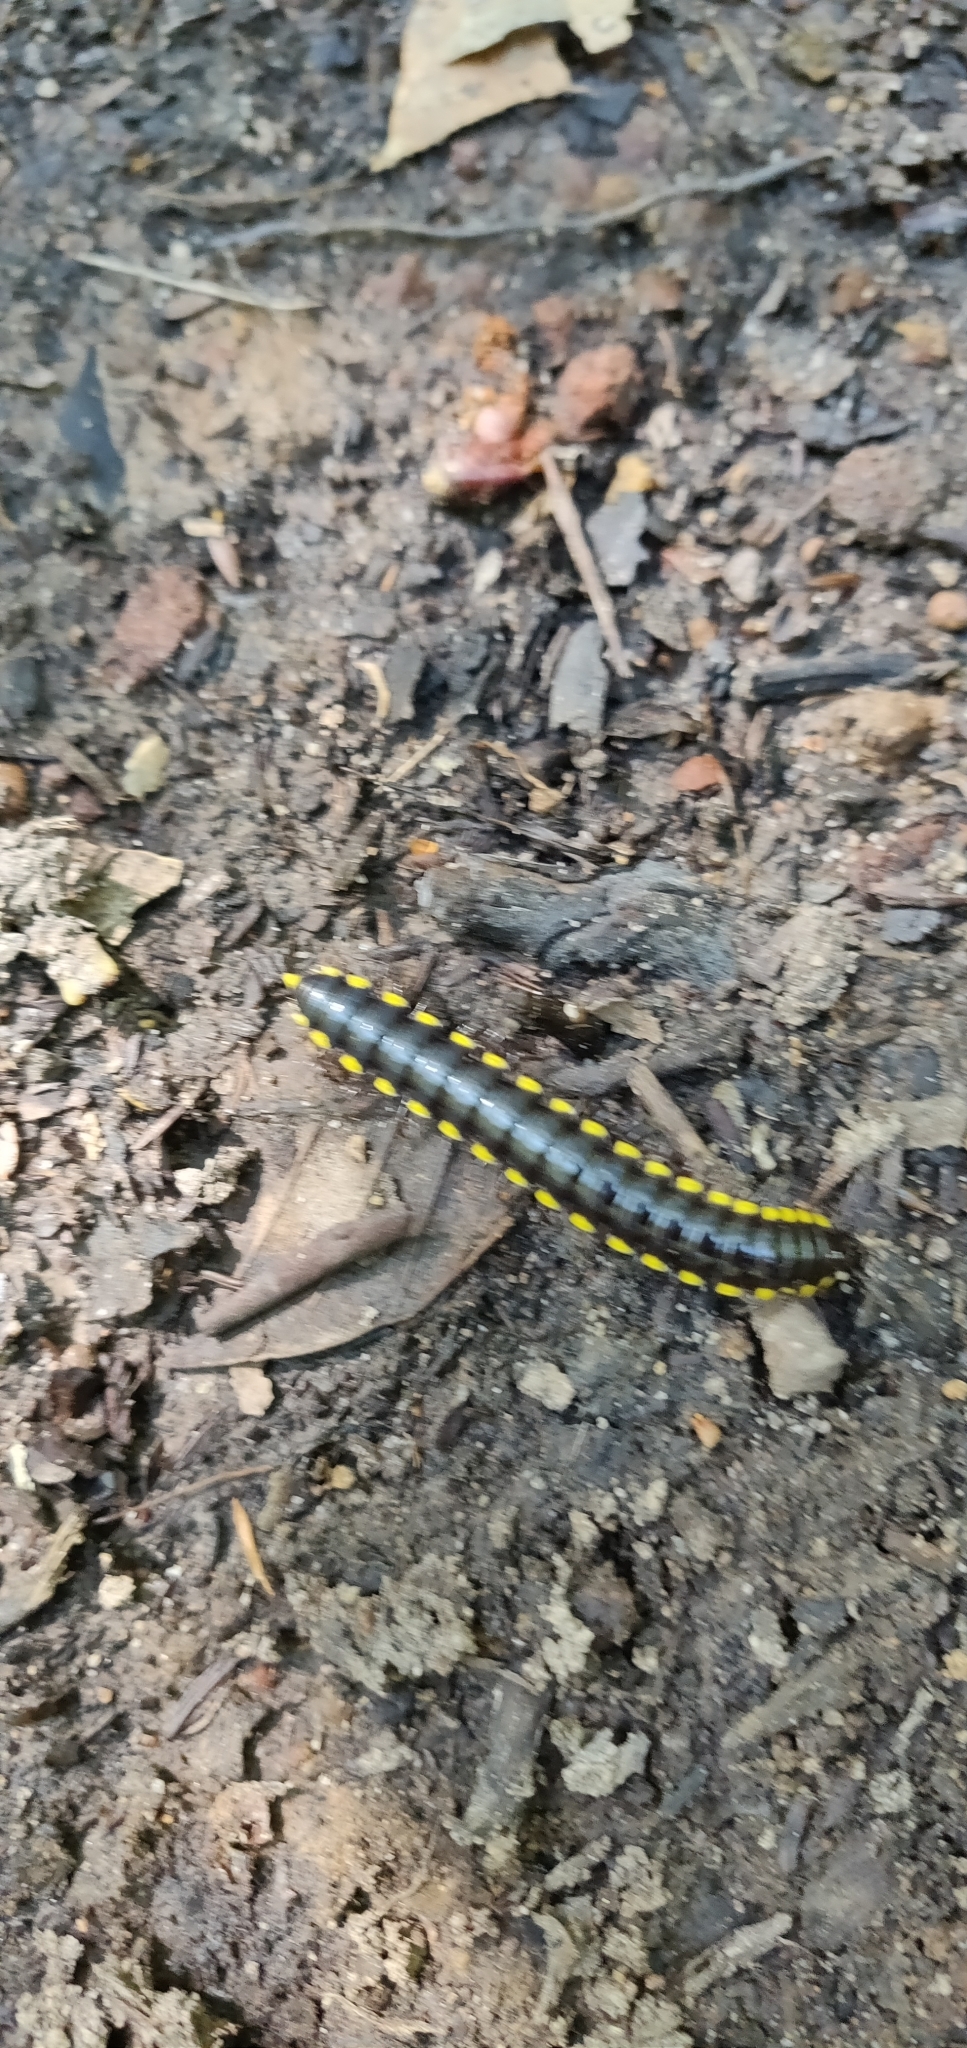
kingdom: Animalia
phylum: Arthropoda
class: Diplopoda
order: Polydesmida
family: Xystodesmidae
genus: Harpaphe
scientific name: Harpaphe haydeniana
